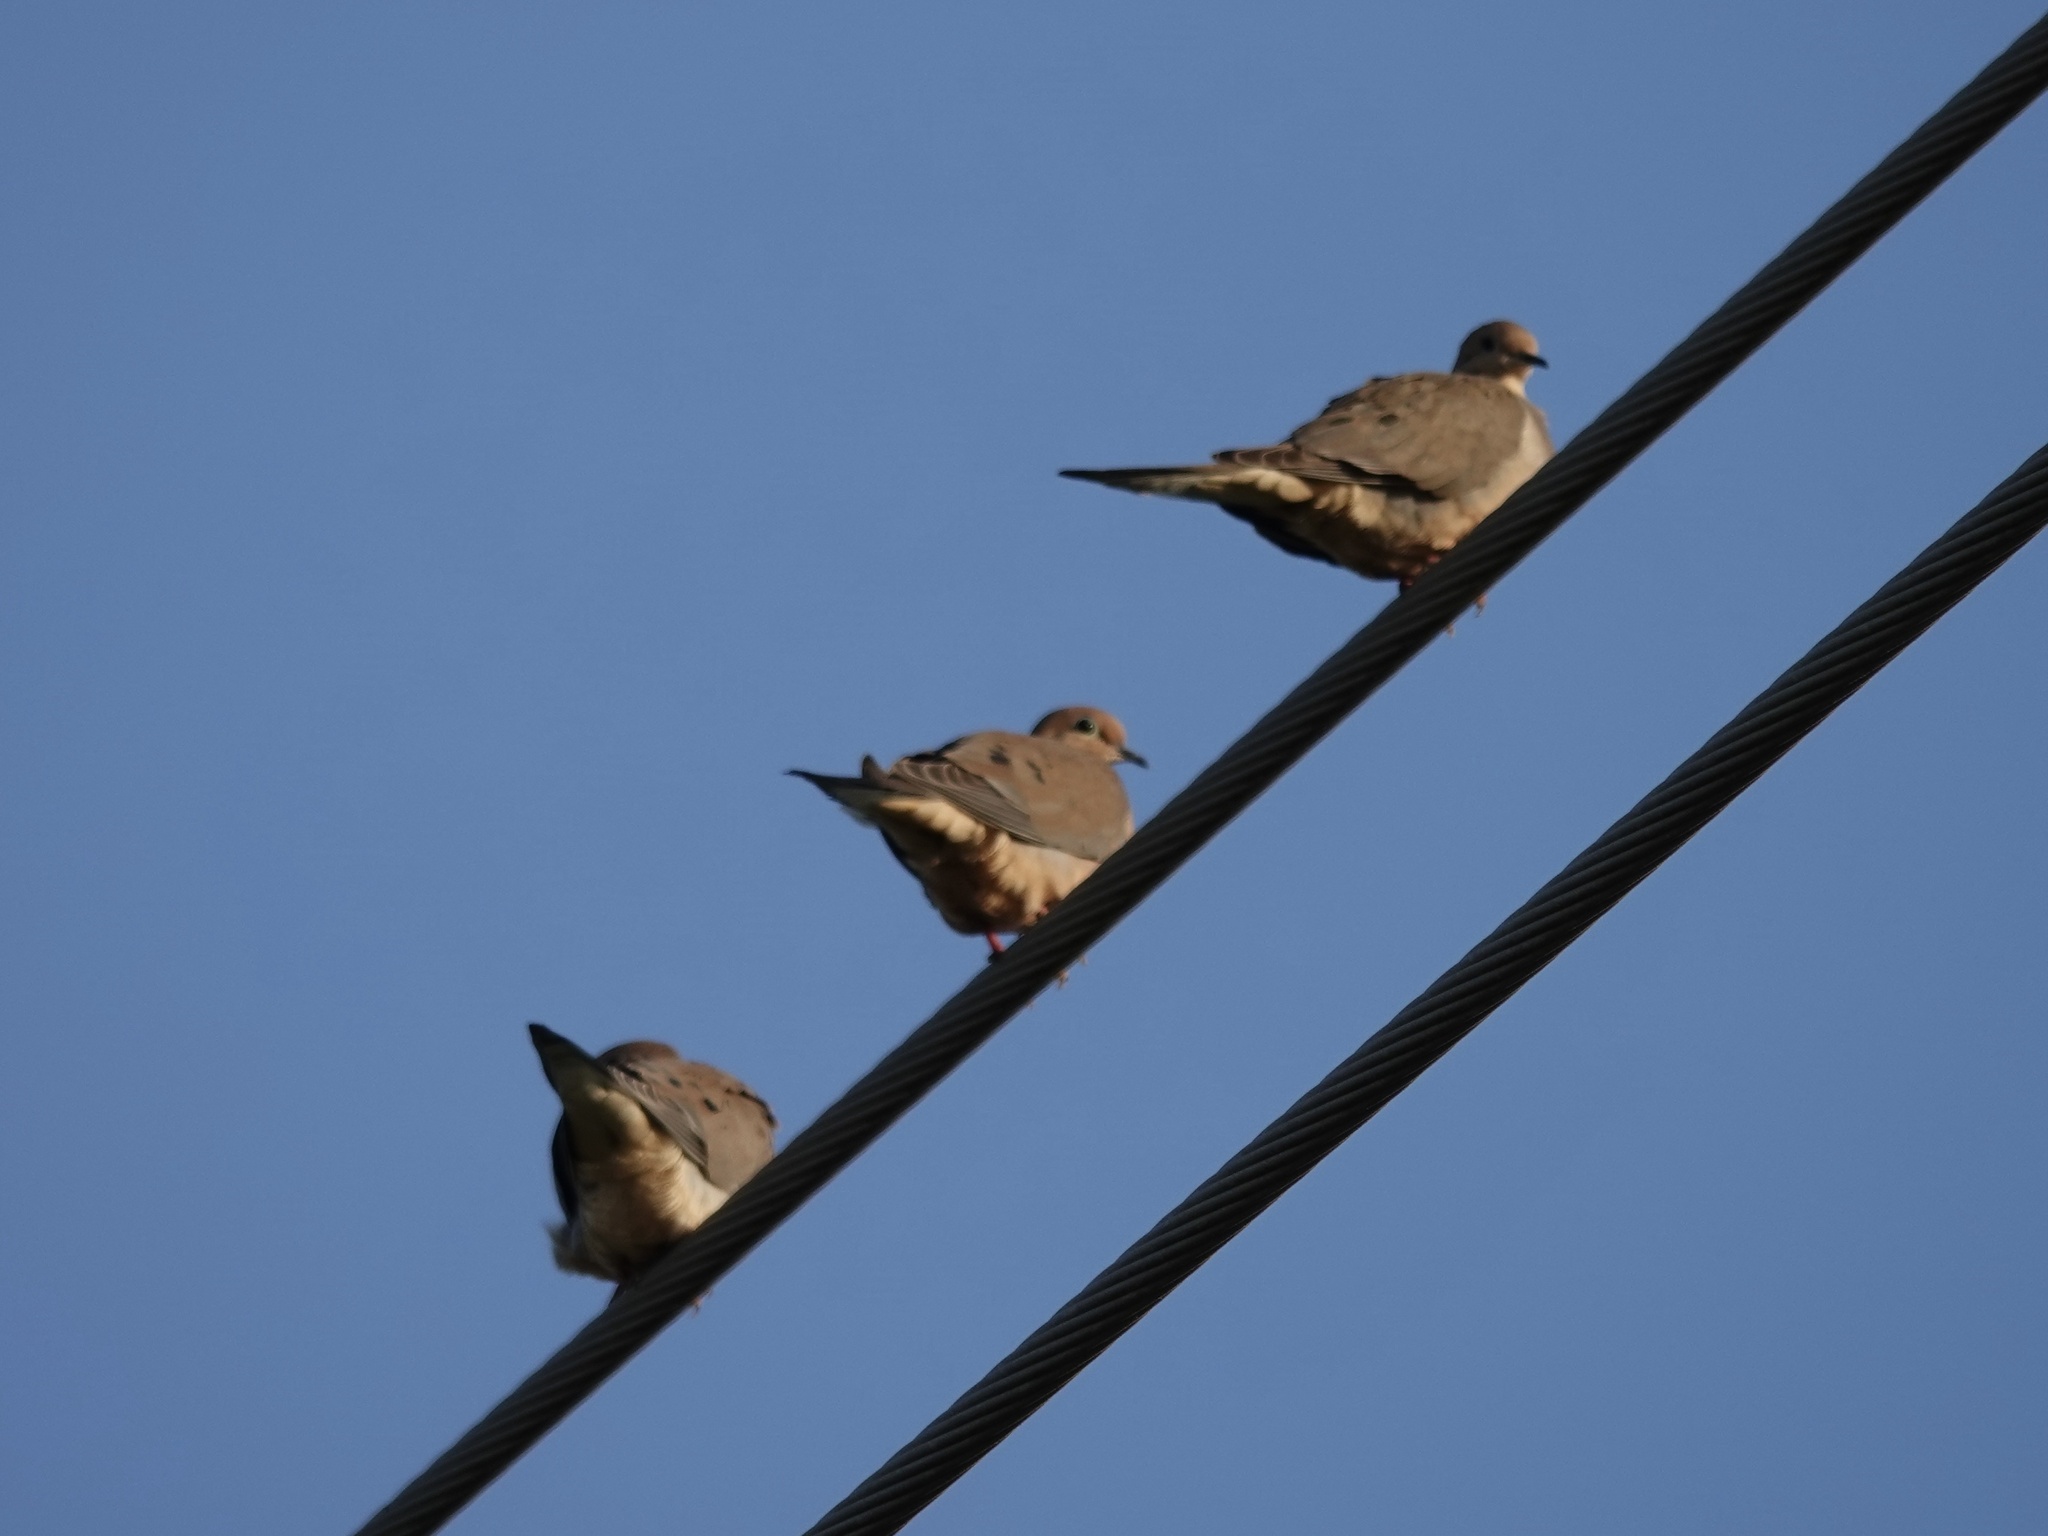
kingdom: Animalia
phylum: Chordata
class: Aves
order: Columbiformes
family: Columbidae
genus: Zenaida
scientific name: Zenaida macroura
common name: Mourning dove
